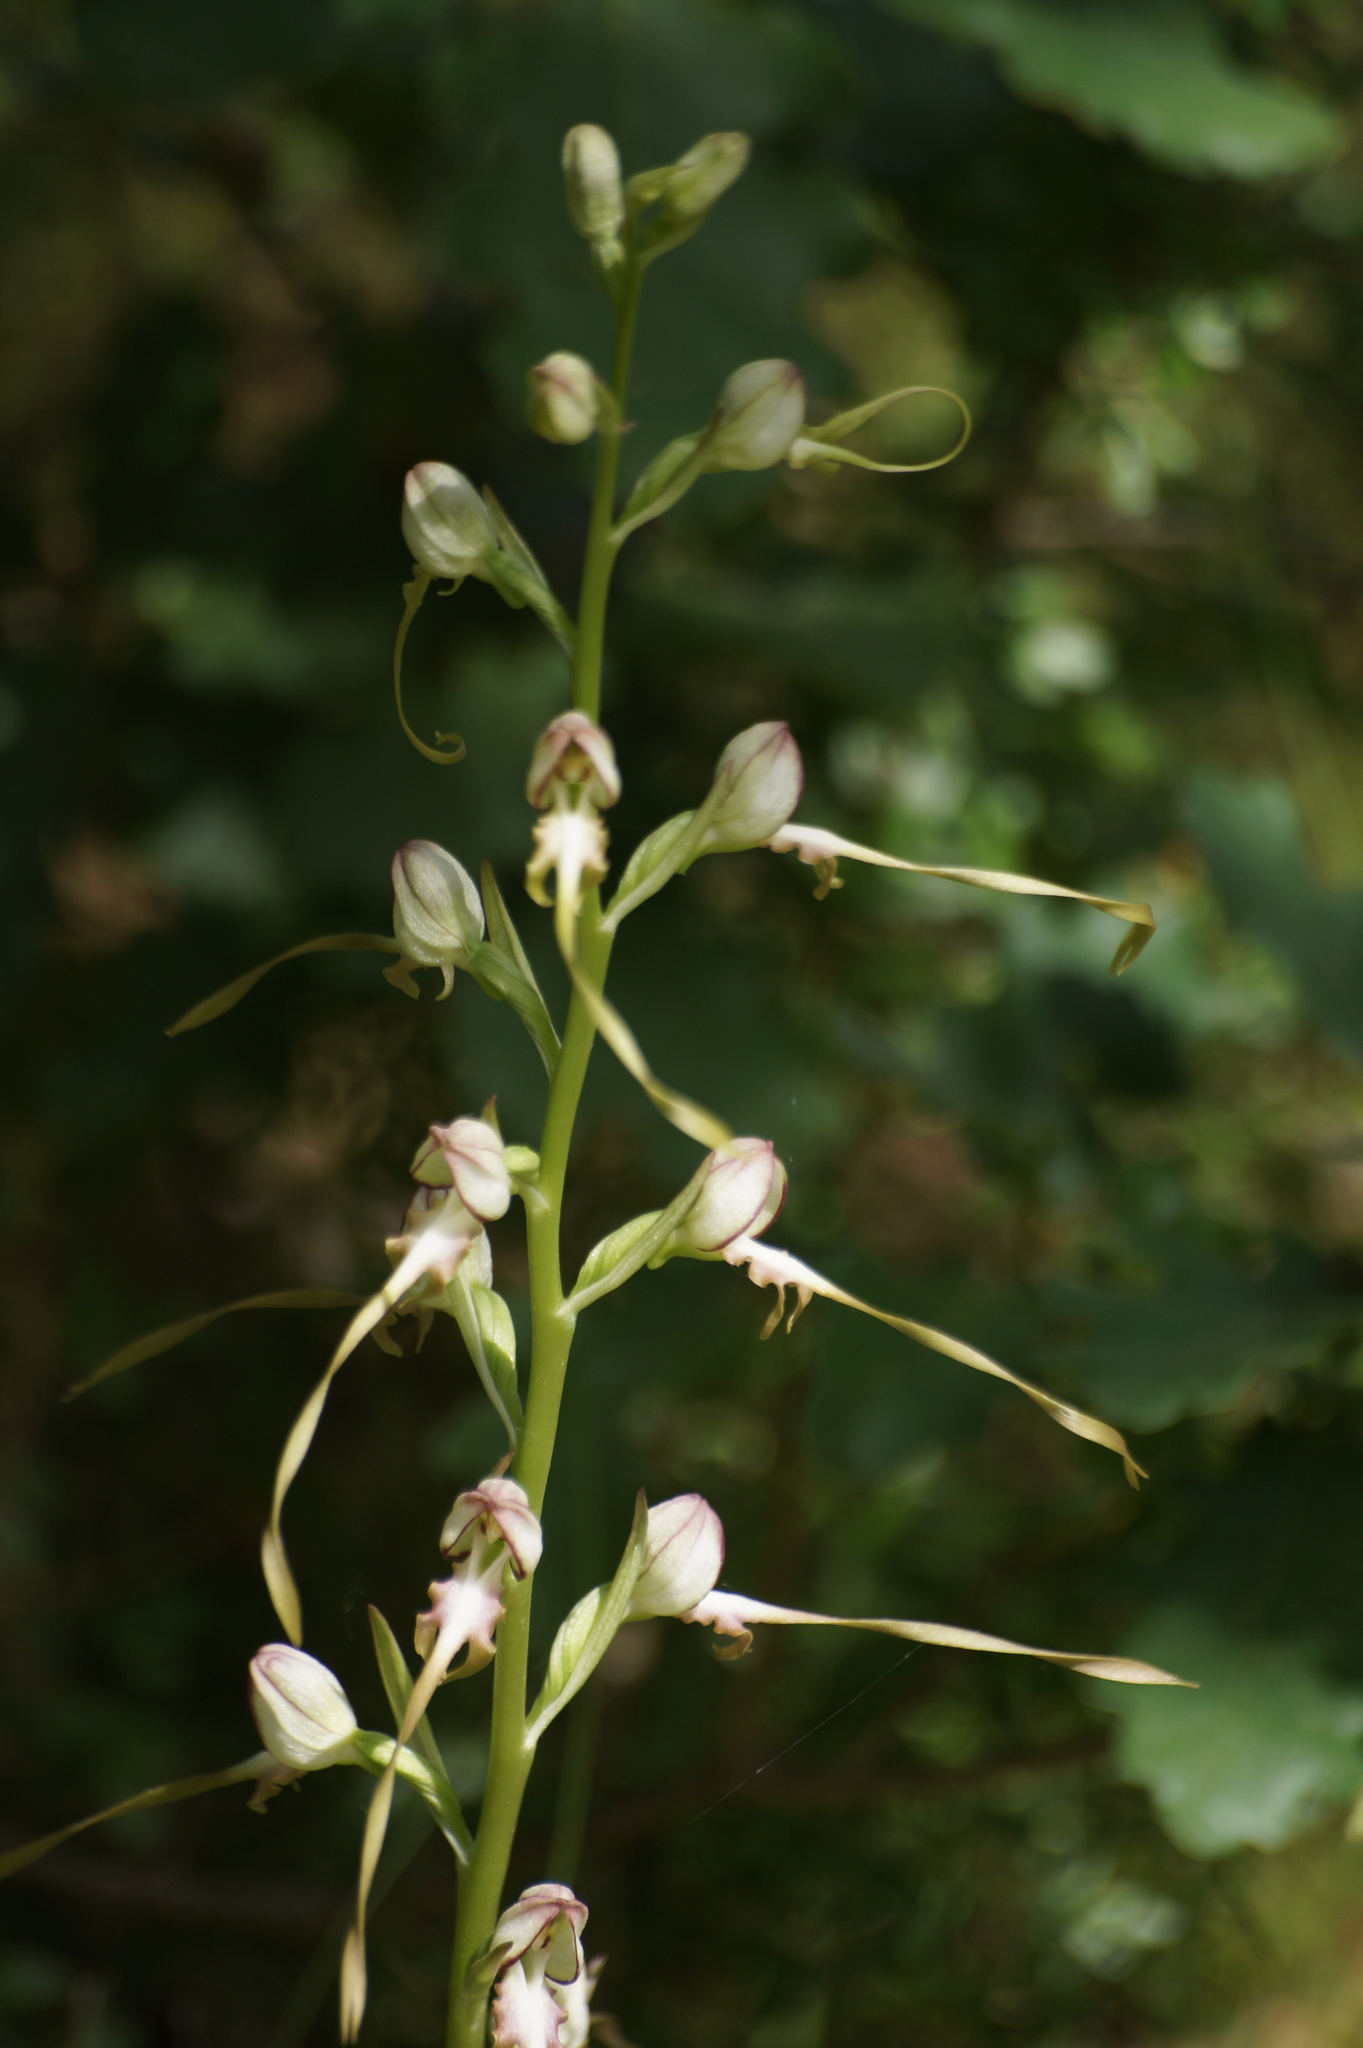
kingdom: Plantae
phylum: Tracheophyta
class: Liliopsida
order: Asparagales
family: Orchidaceae
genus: Himantoglossum
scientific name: Himantoglossum caprinum
